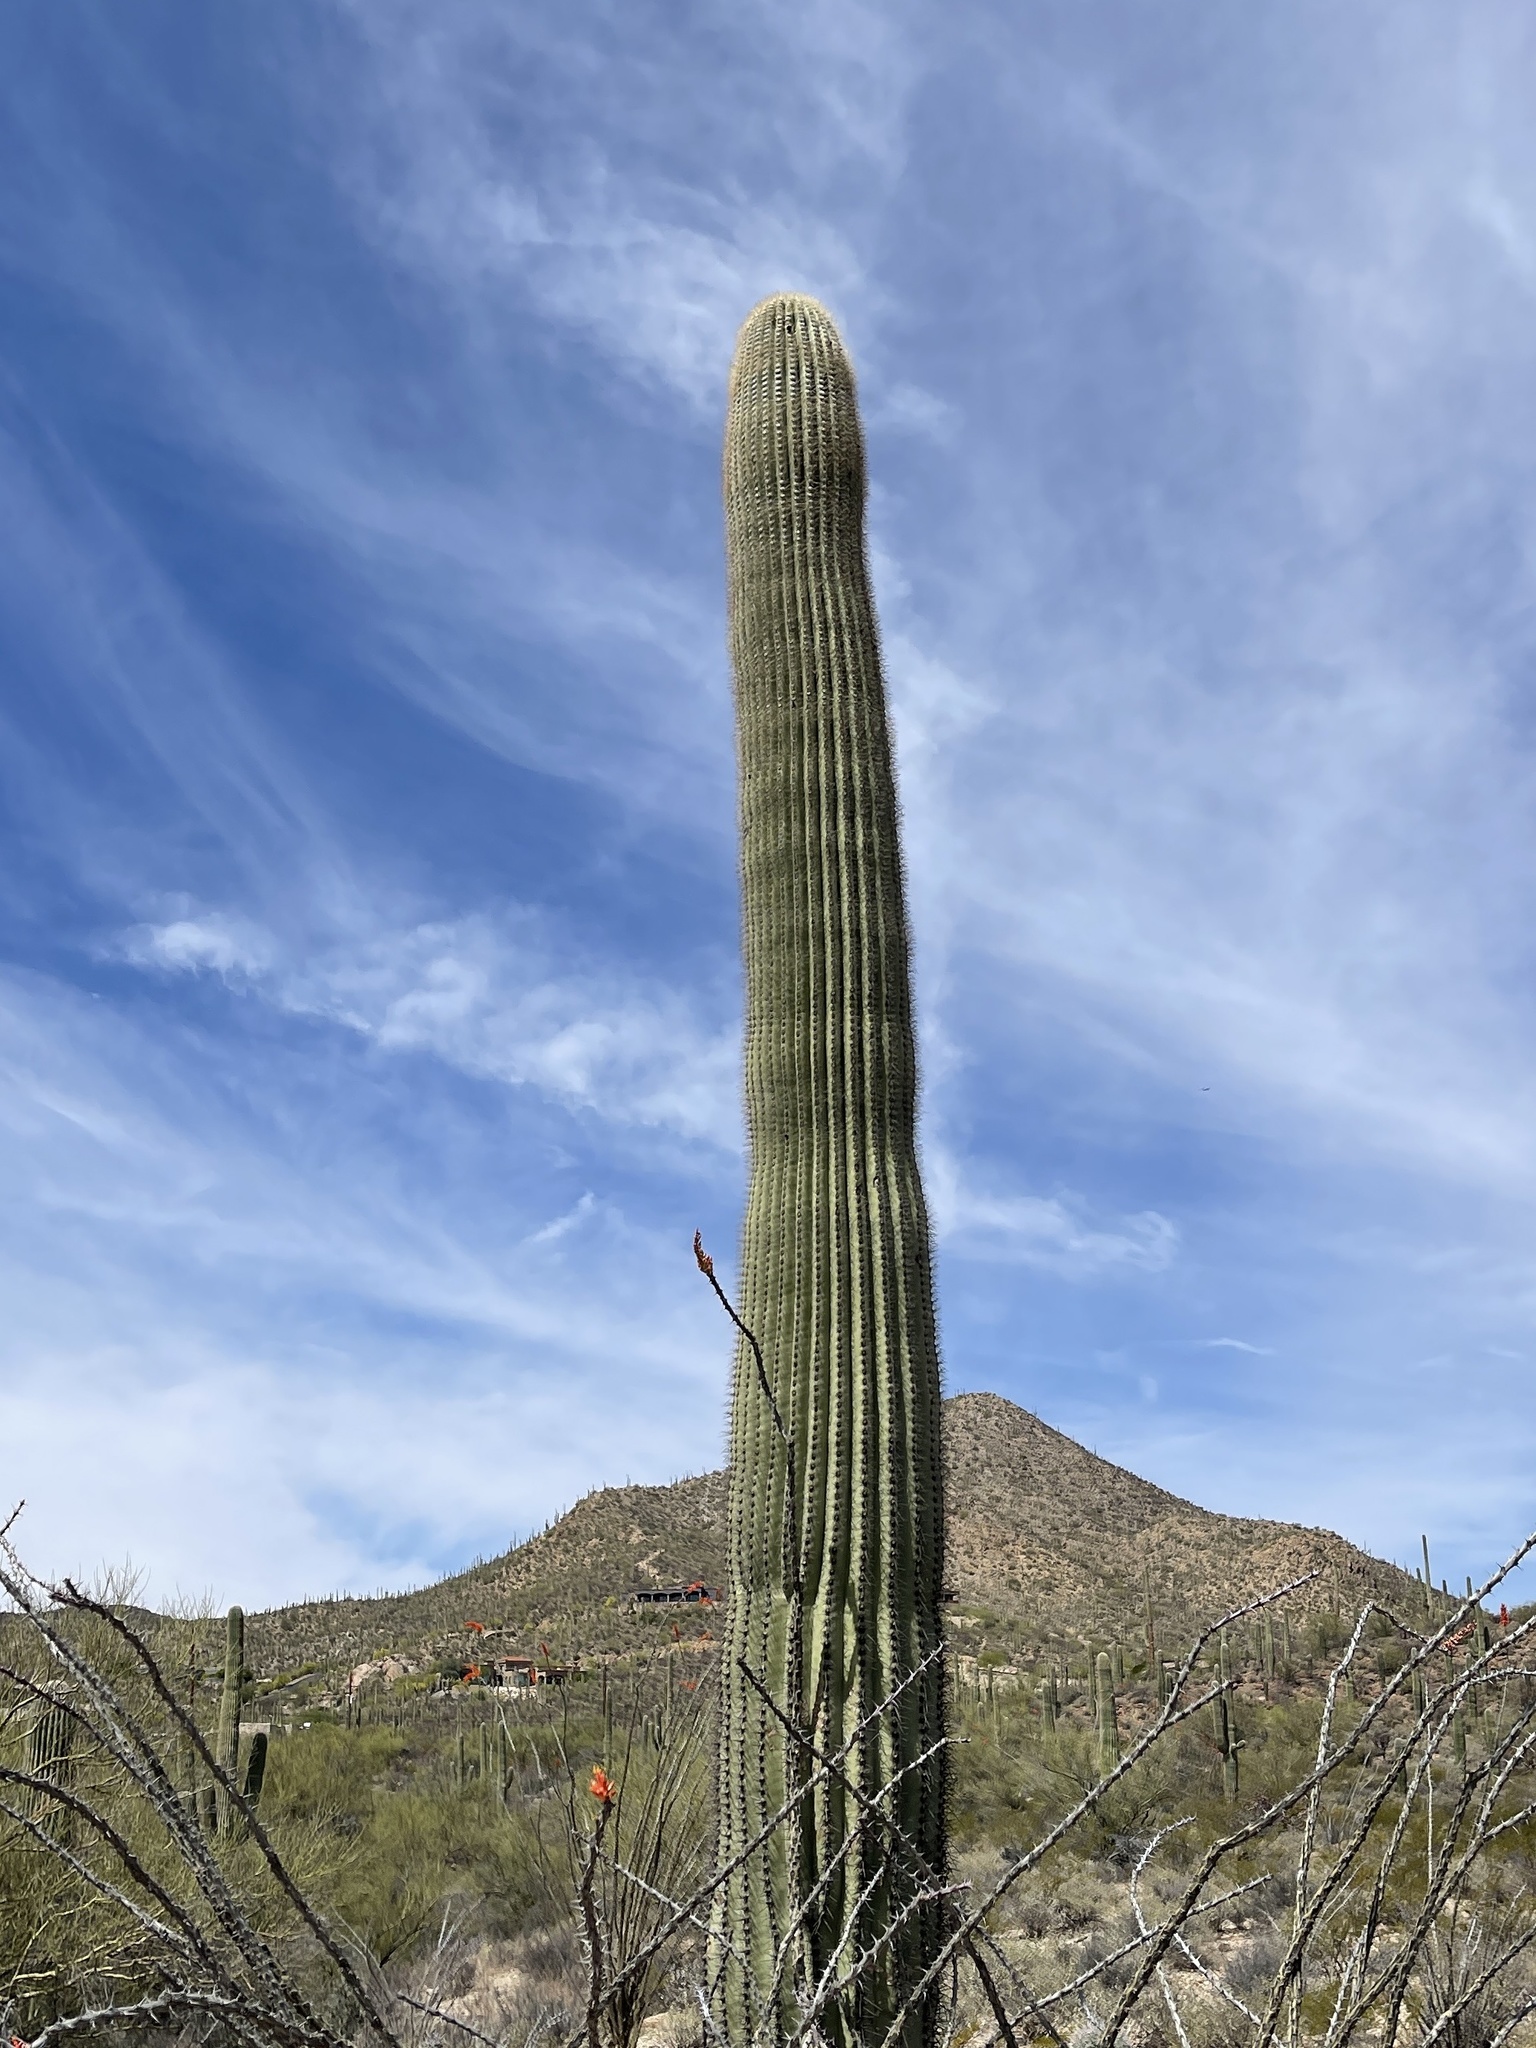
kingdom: Plantae
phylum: Tracheophyta
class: Magnoliopsida
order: Caryophyllales
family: Cactaceae
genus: Carnegiea
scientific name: Carnegiea gigantea
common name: Saguaro
